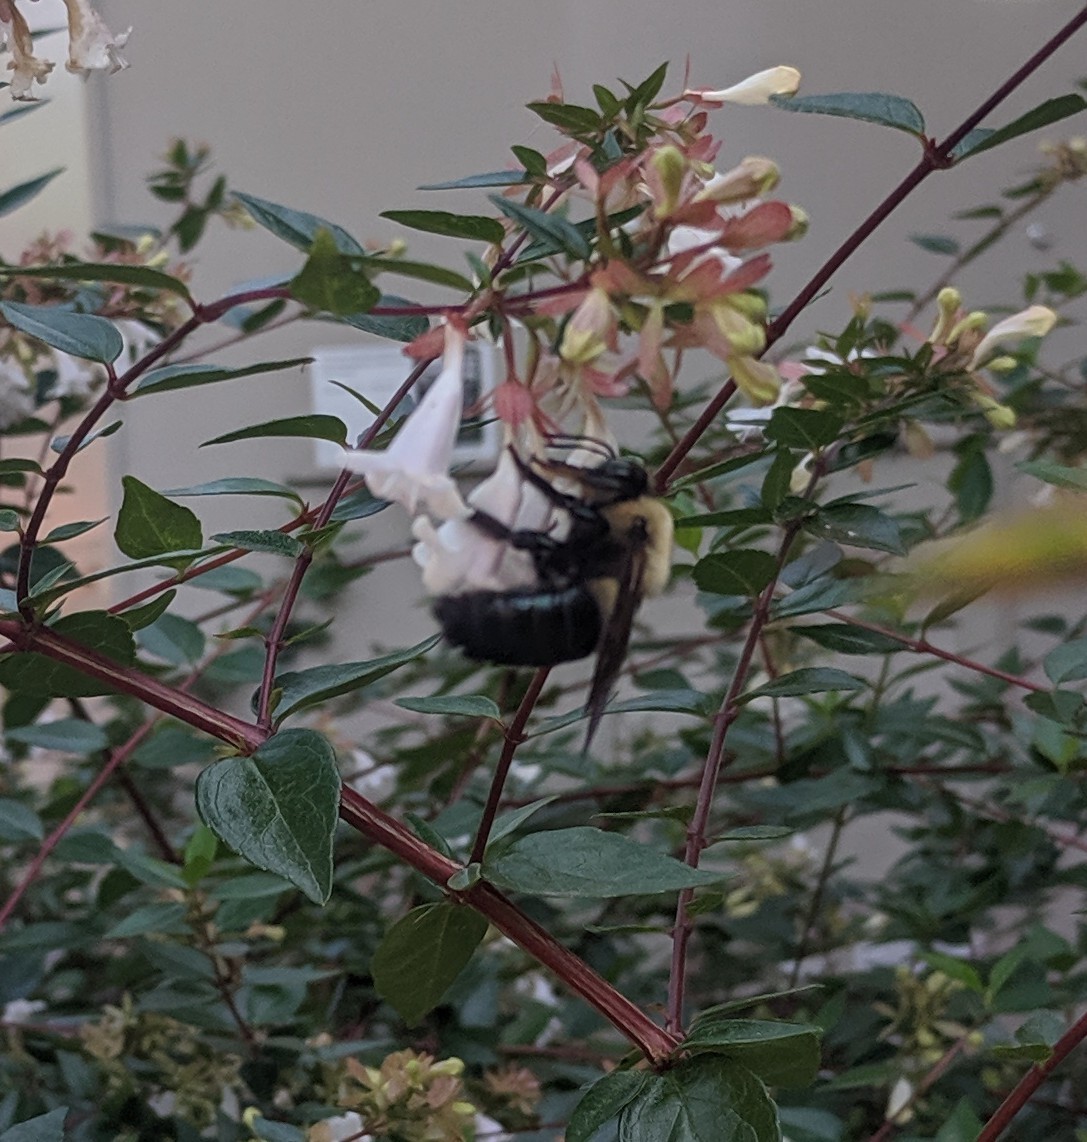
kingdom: Animalia
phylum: Arthropoda
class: Insecta
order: Hymenoptera
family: Apidae
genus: Xylocopa
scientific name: Xylocopa virginica
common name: Carpenter bee
